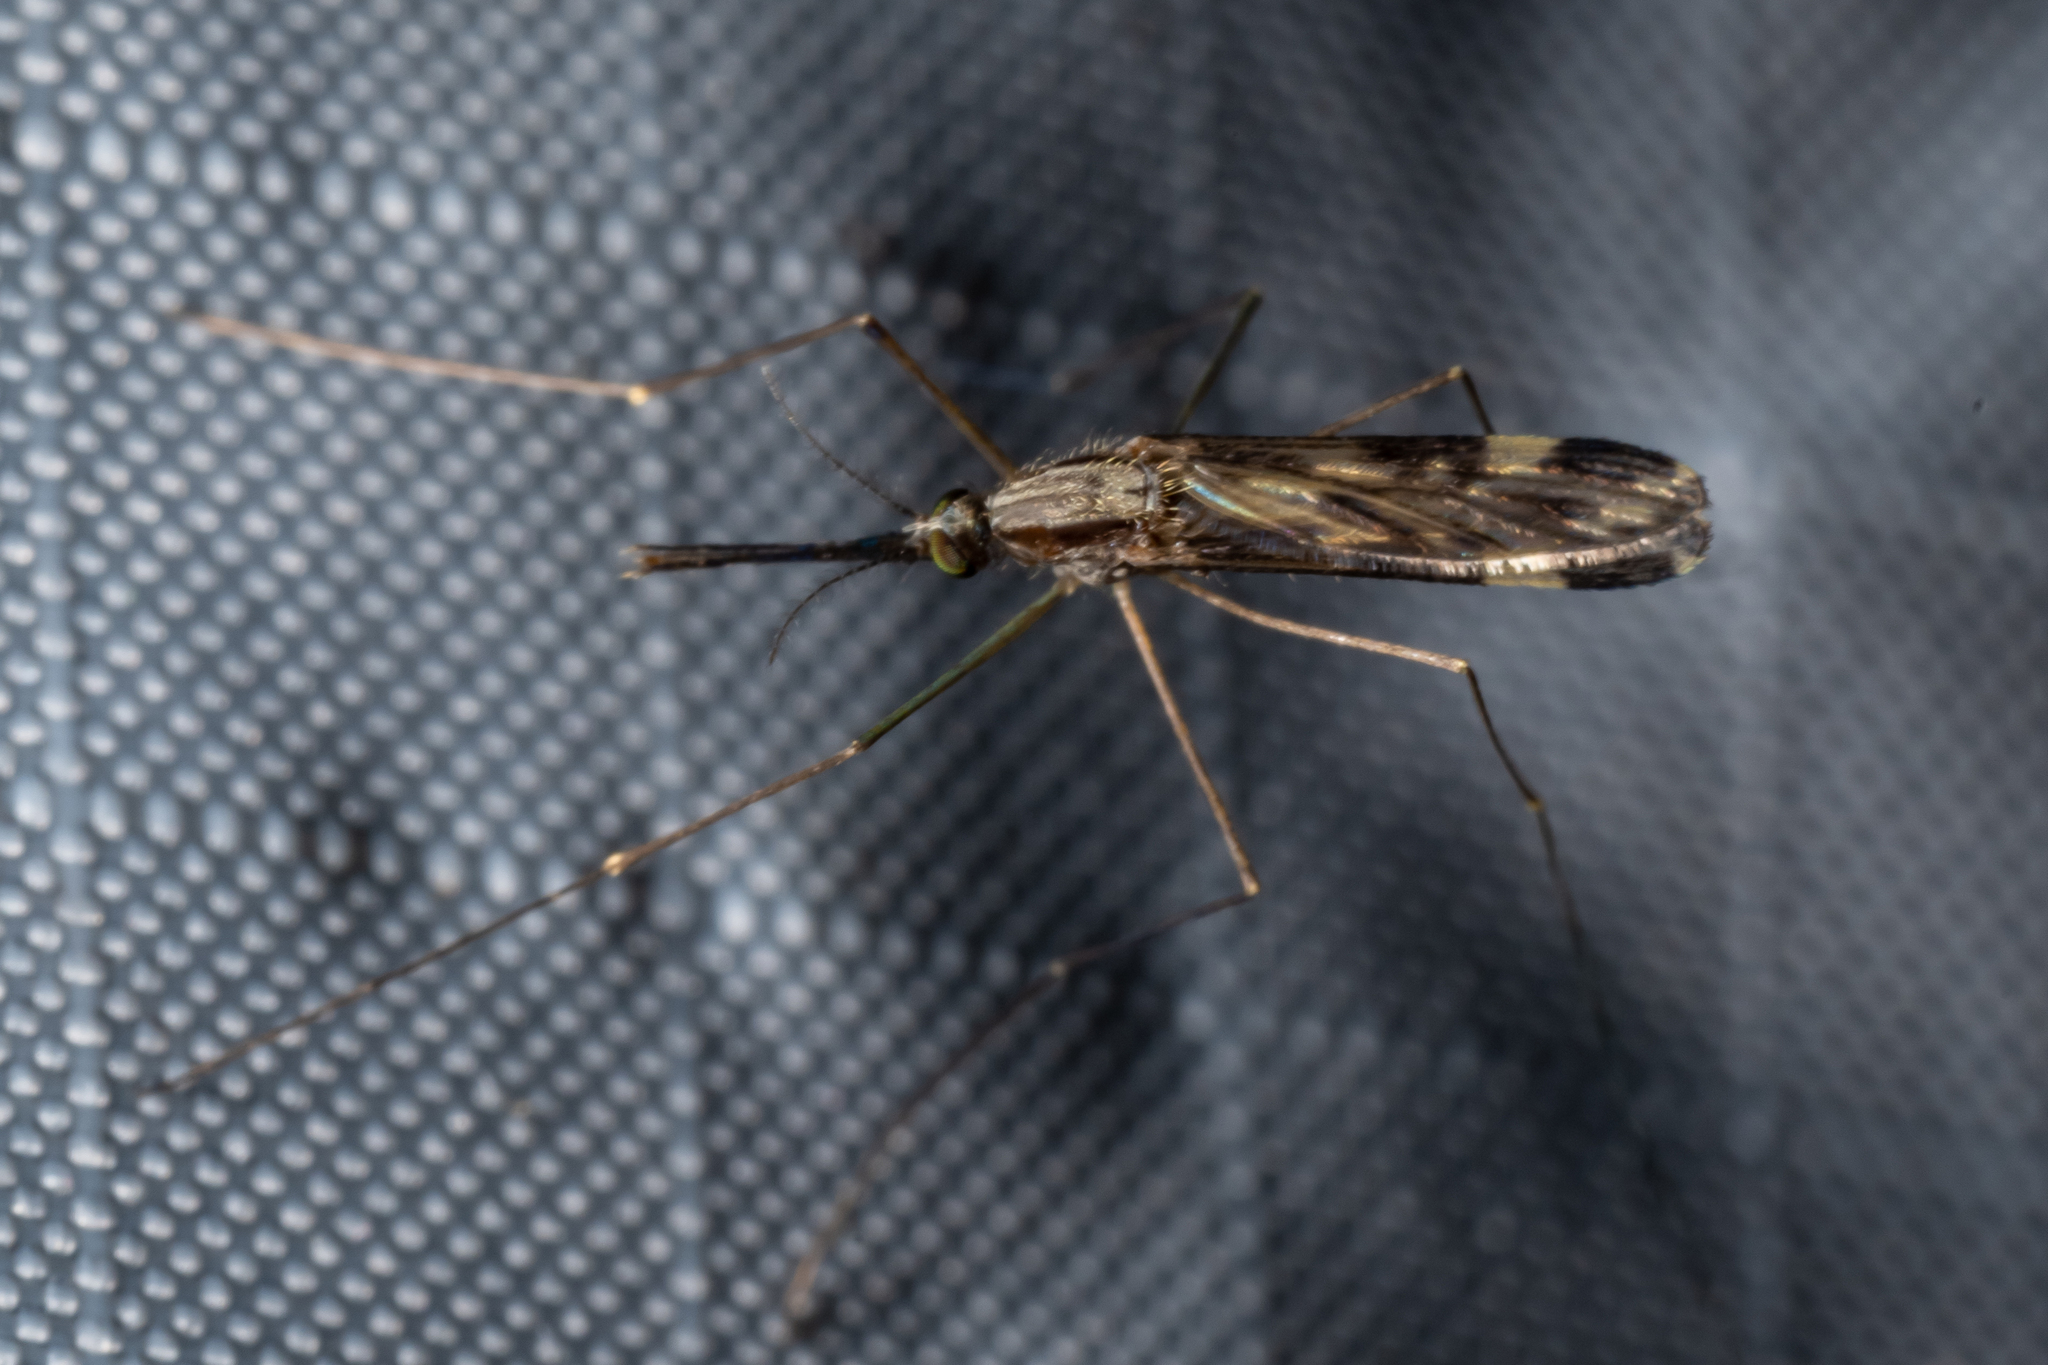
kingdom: Animalia
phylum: Arthropoda
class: Insecta
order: Diptera
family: Culicidae
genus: Anopheles
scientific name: Anopheles punctipennis
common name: Woodland malaria mosquito
